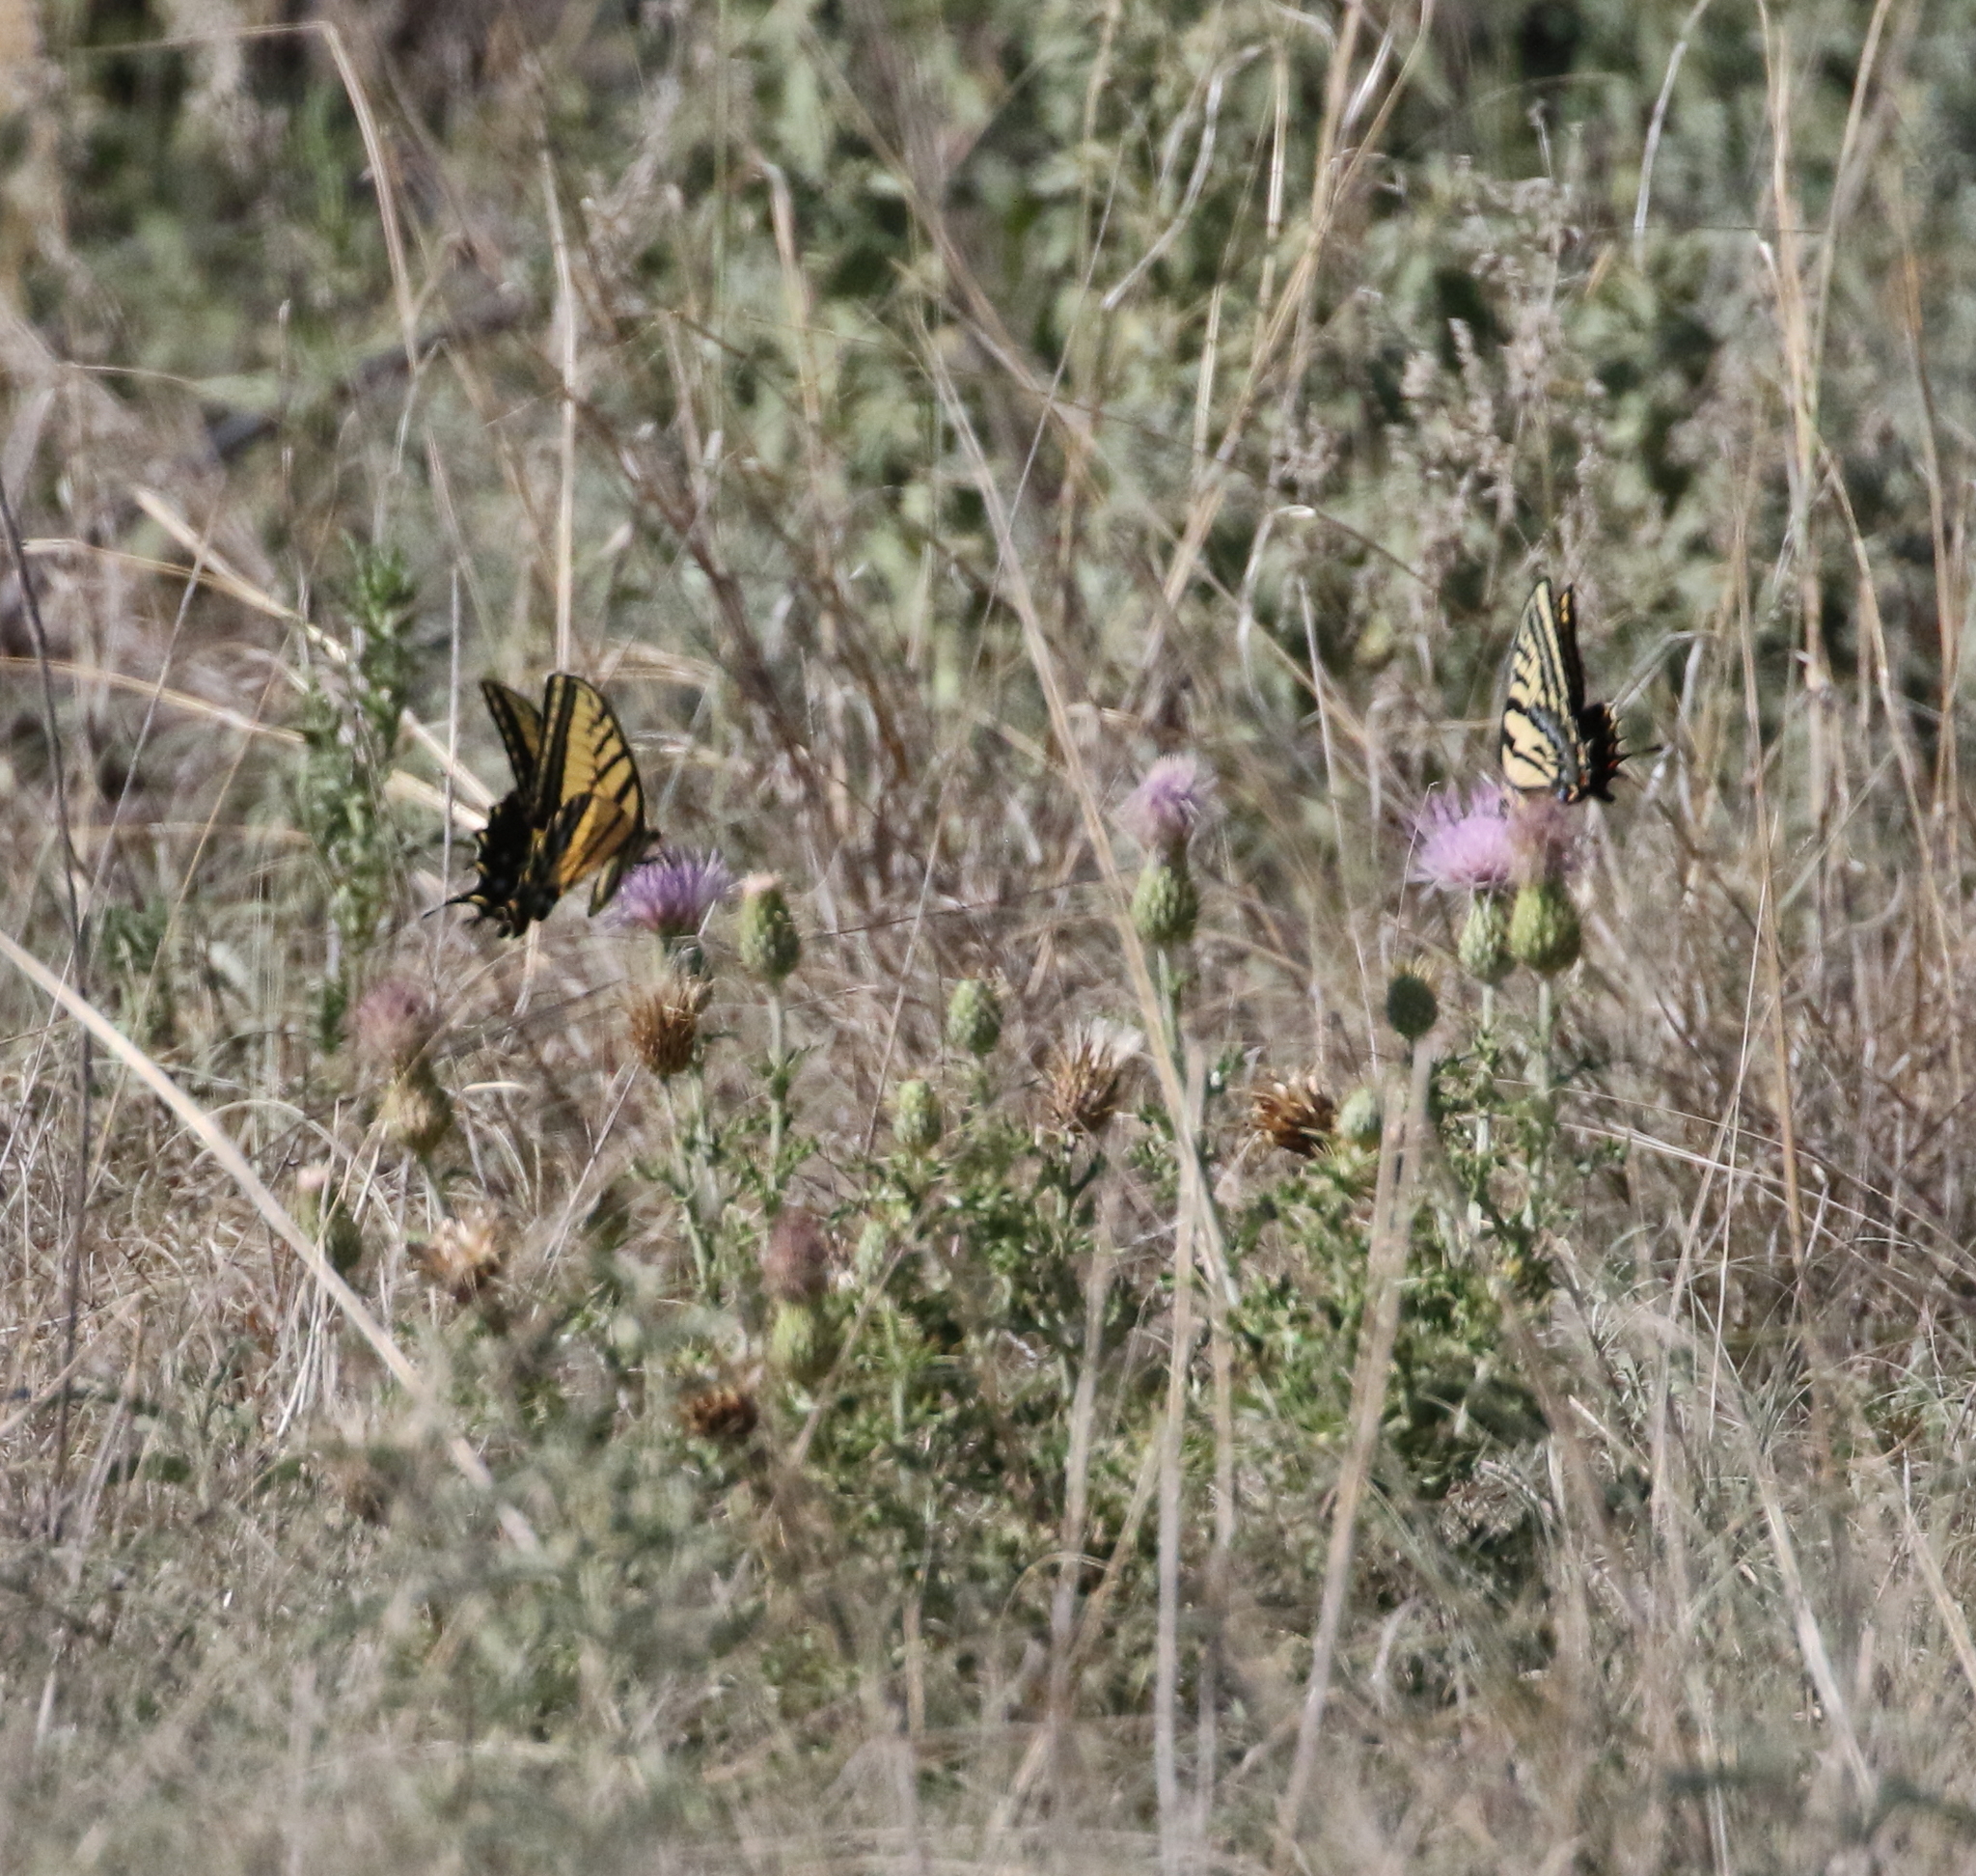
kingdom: Animalia
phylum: Arthropoda
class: Insecta
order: Lepidoptera
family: Papilionidae
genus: Papilio
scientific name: Papilio multicaudata
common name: Two-tailed tiger swallowtail
